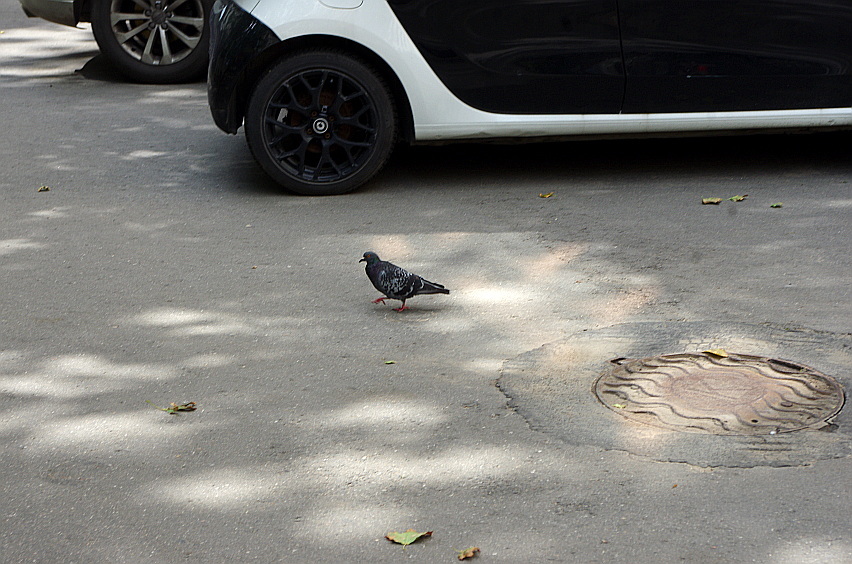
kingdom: Animalia
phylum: Chordata
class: Aves
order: Columbiformes
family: Columbidae
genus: Columba
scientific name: Columba livia
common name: Rock pigeon
